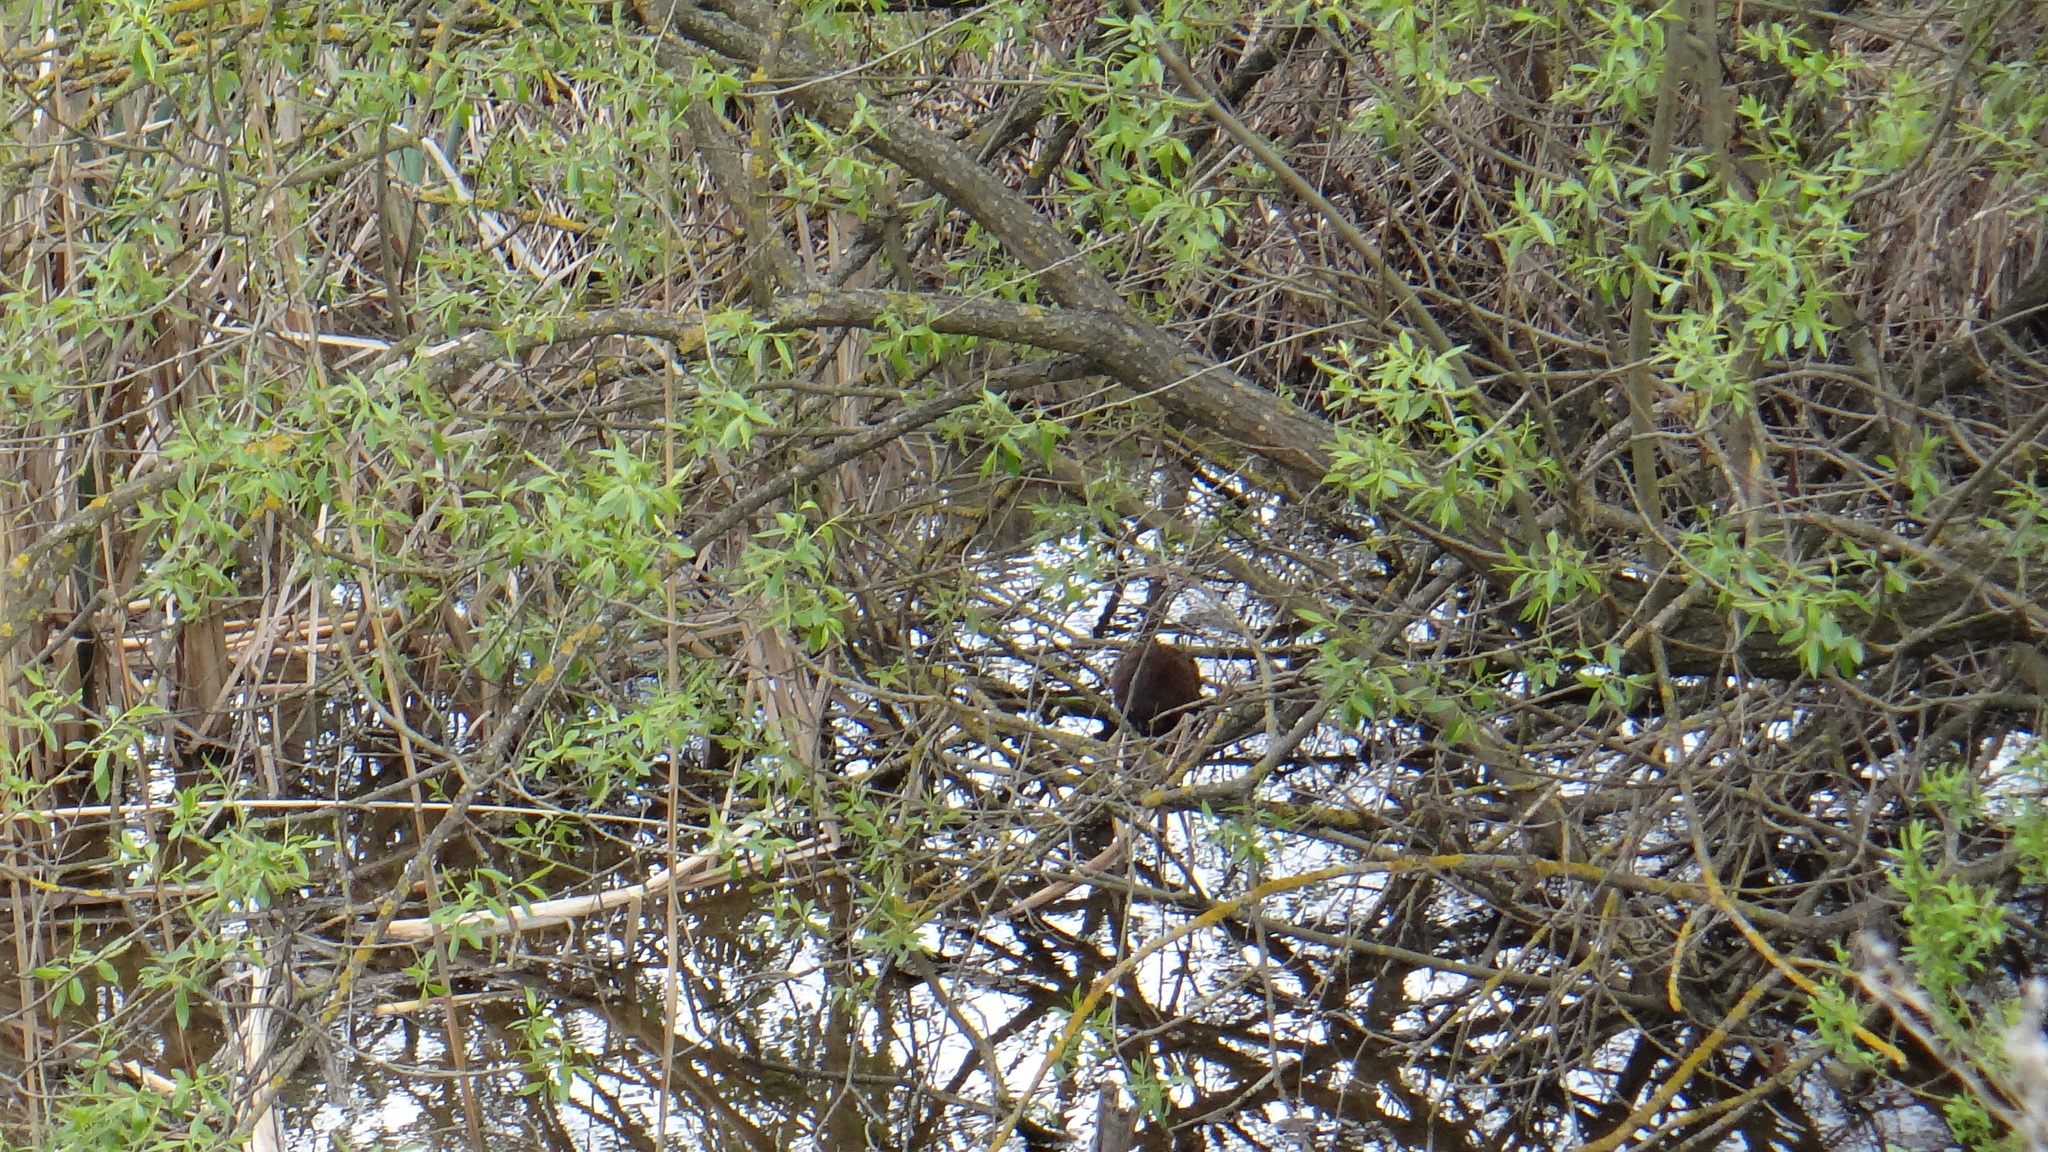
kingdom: Animalia
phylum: Chordata
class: Mammalia
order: Rodentia
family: Cricetidae
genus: Ondatra
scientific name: Ondatra zibethicus
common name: Muskrat
